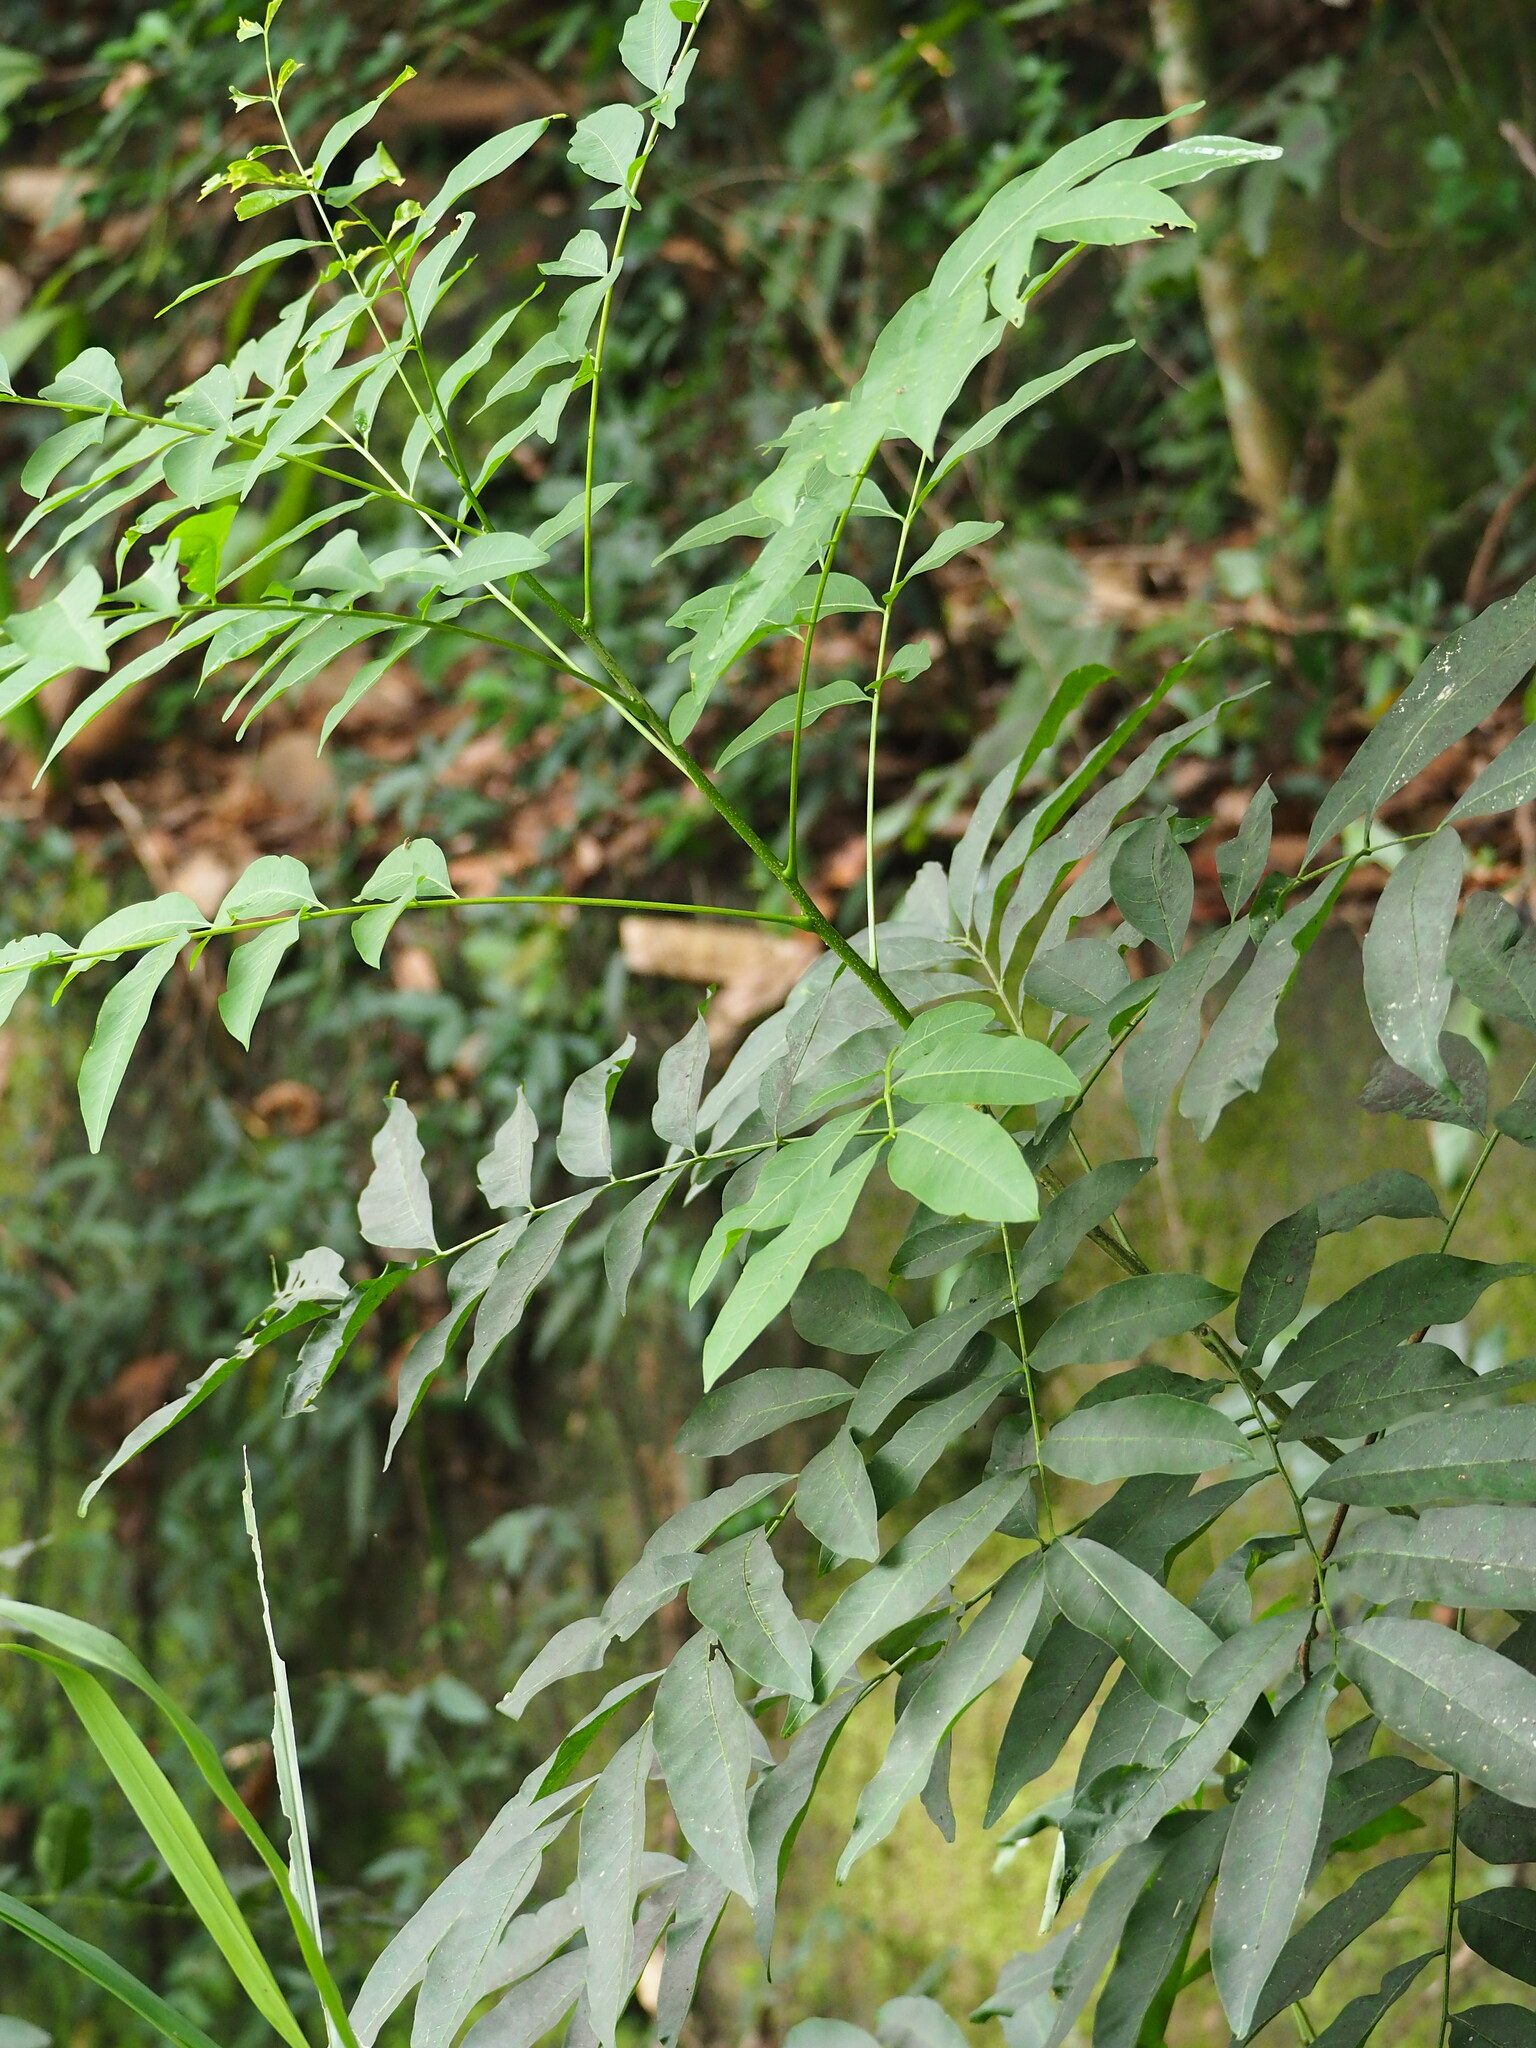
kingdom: Plantae
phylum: Tracheophyta
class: Magnoliopsida
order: Sapindales
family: Sapindaceae
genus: Sapindus
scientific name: Sapindus mukorossi
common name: Chinese soapberry
